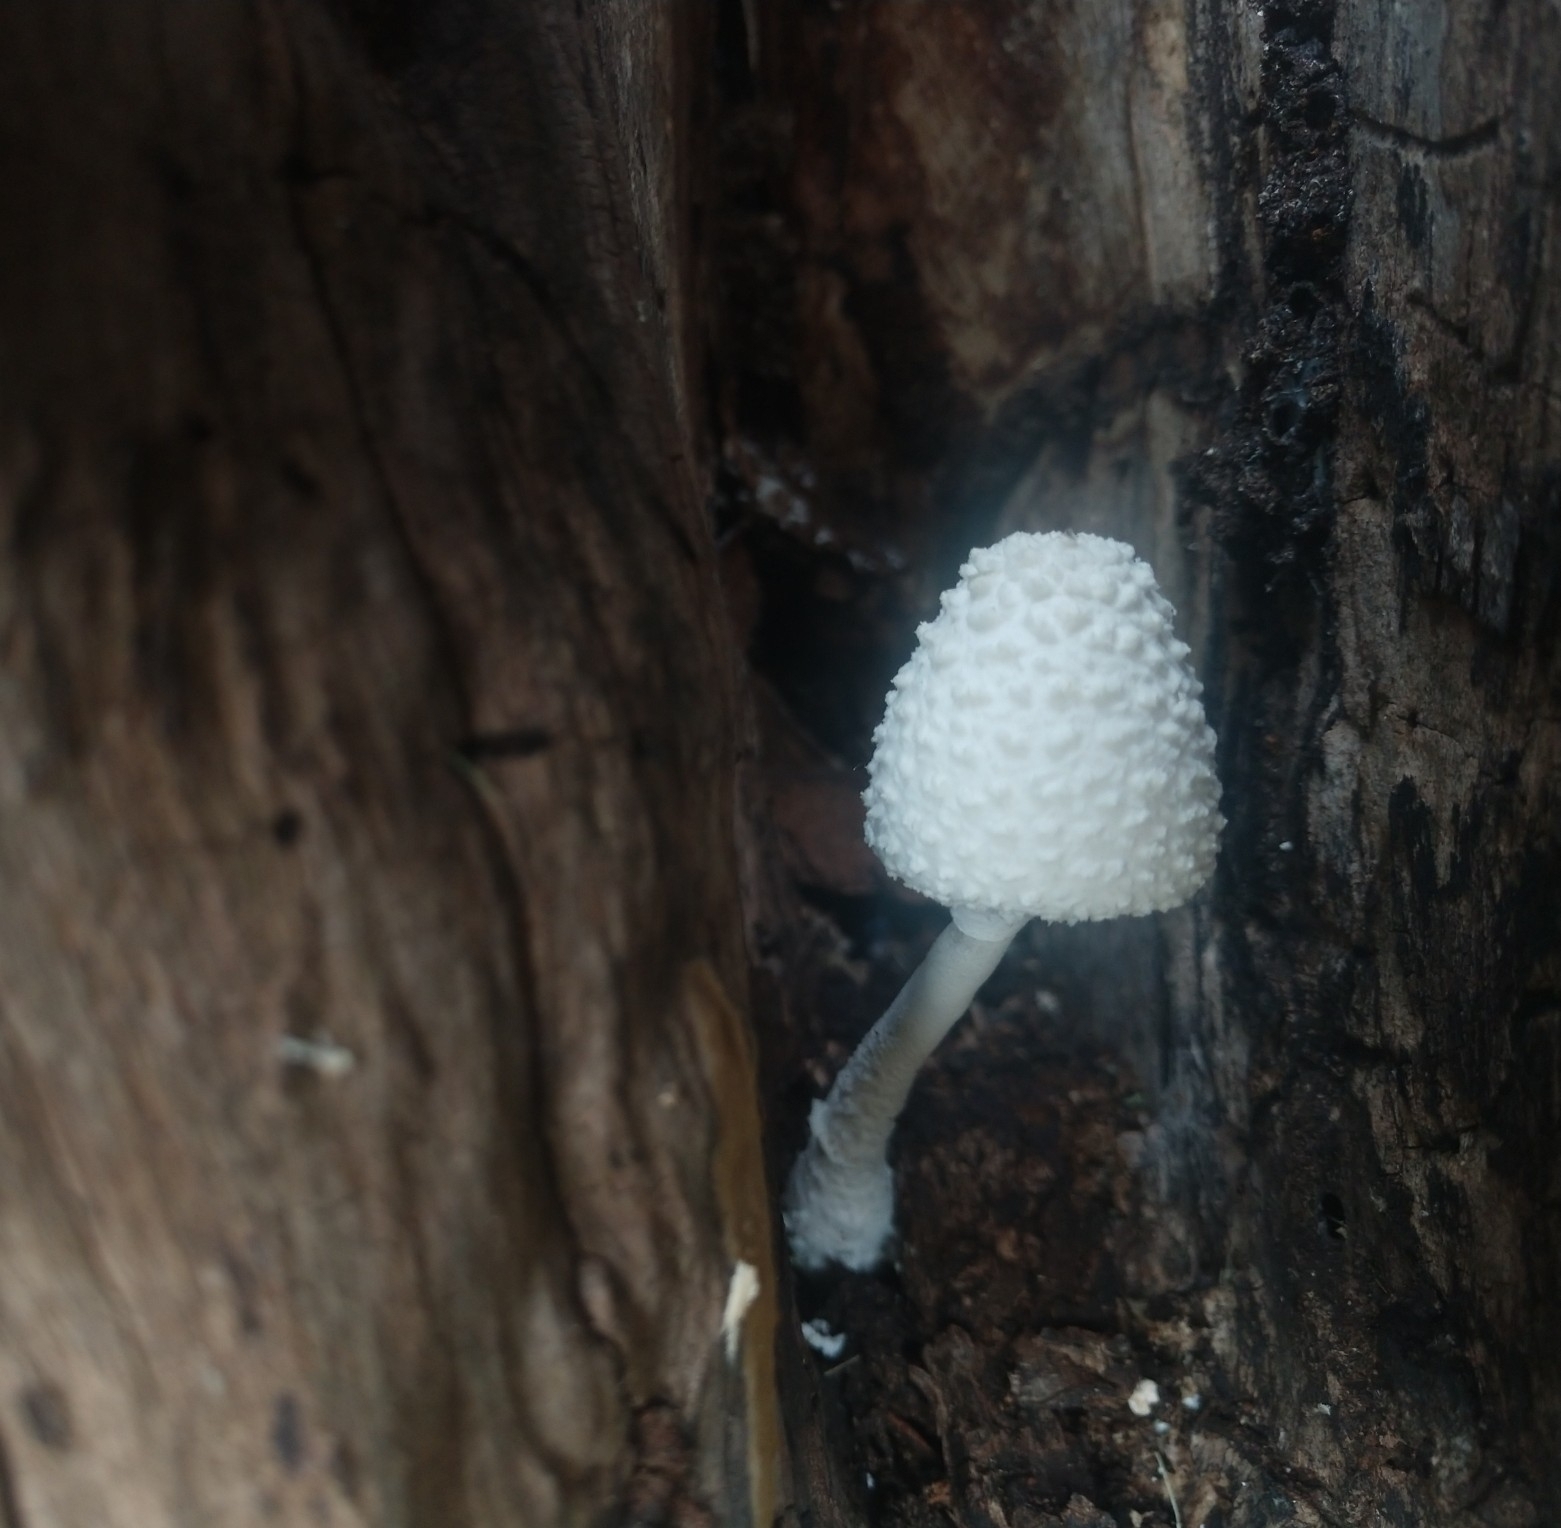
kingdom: Fungi
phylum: Basidiomycota
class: Agaricomycetes
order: Agaricales
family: Agaricaceae
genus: Leucocoprinus
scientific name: Leucocoprinus cretaceus
